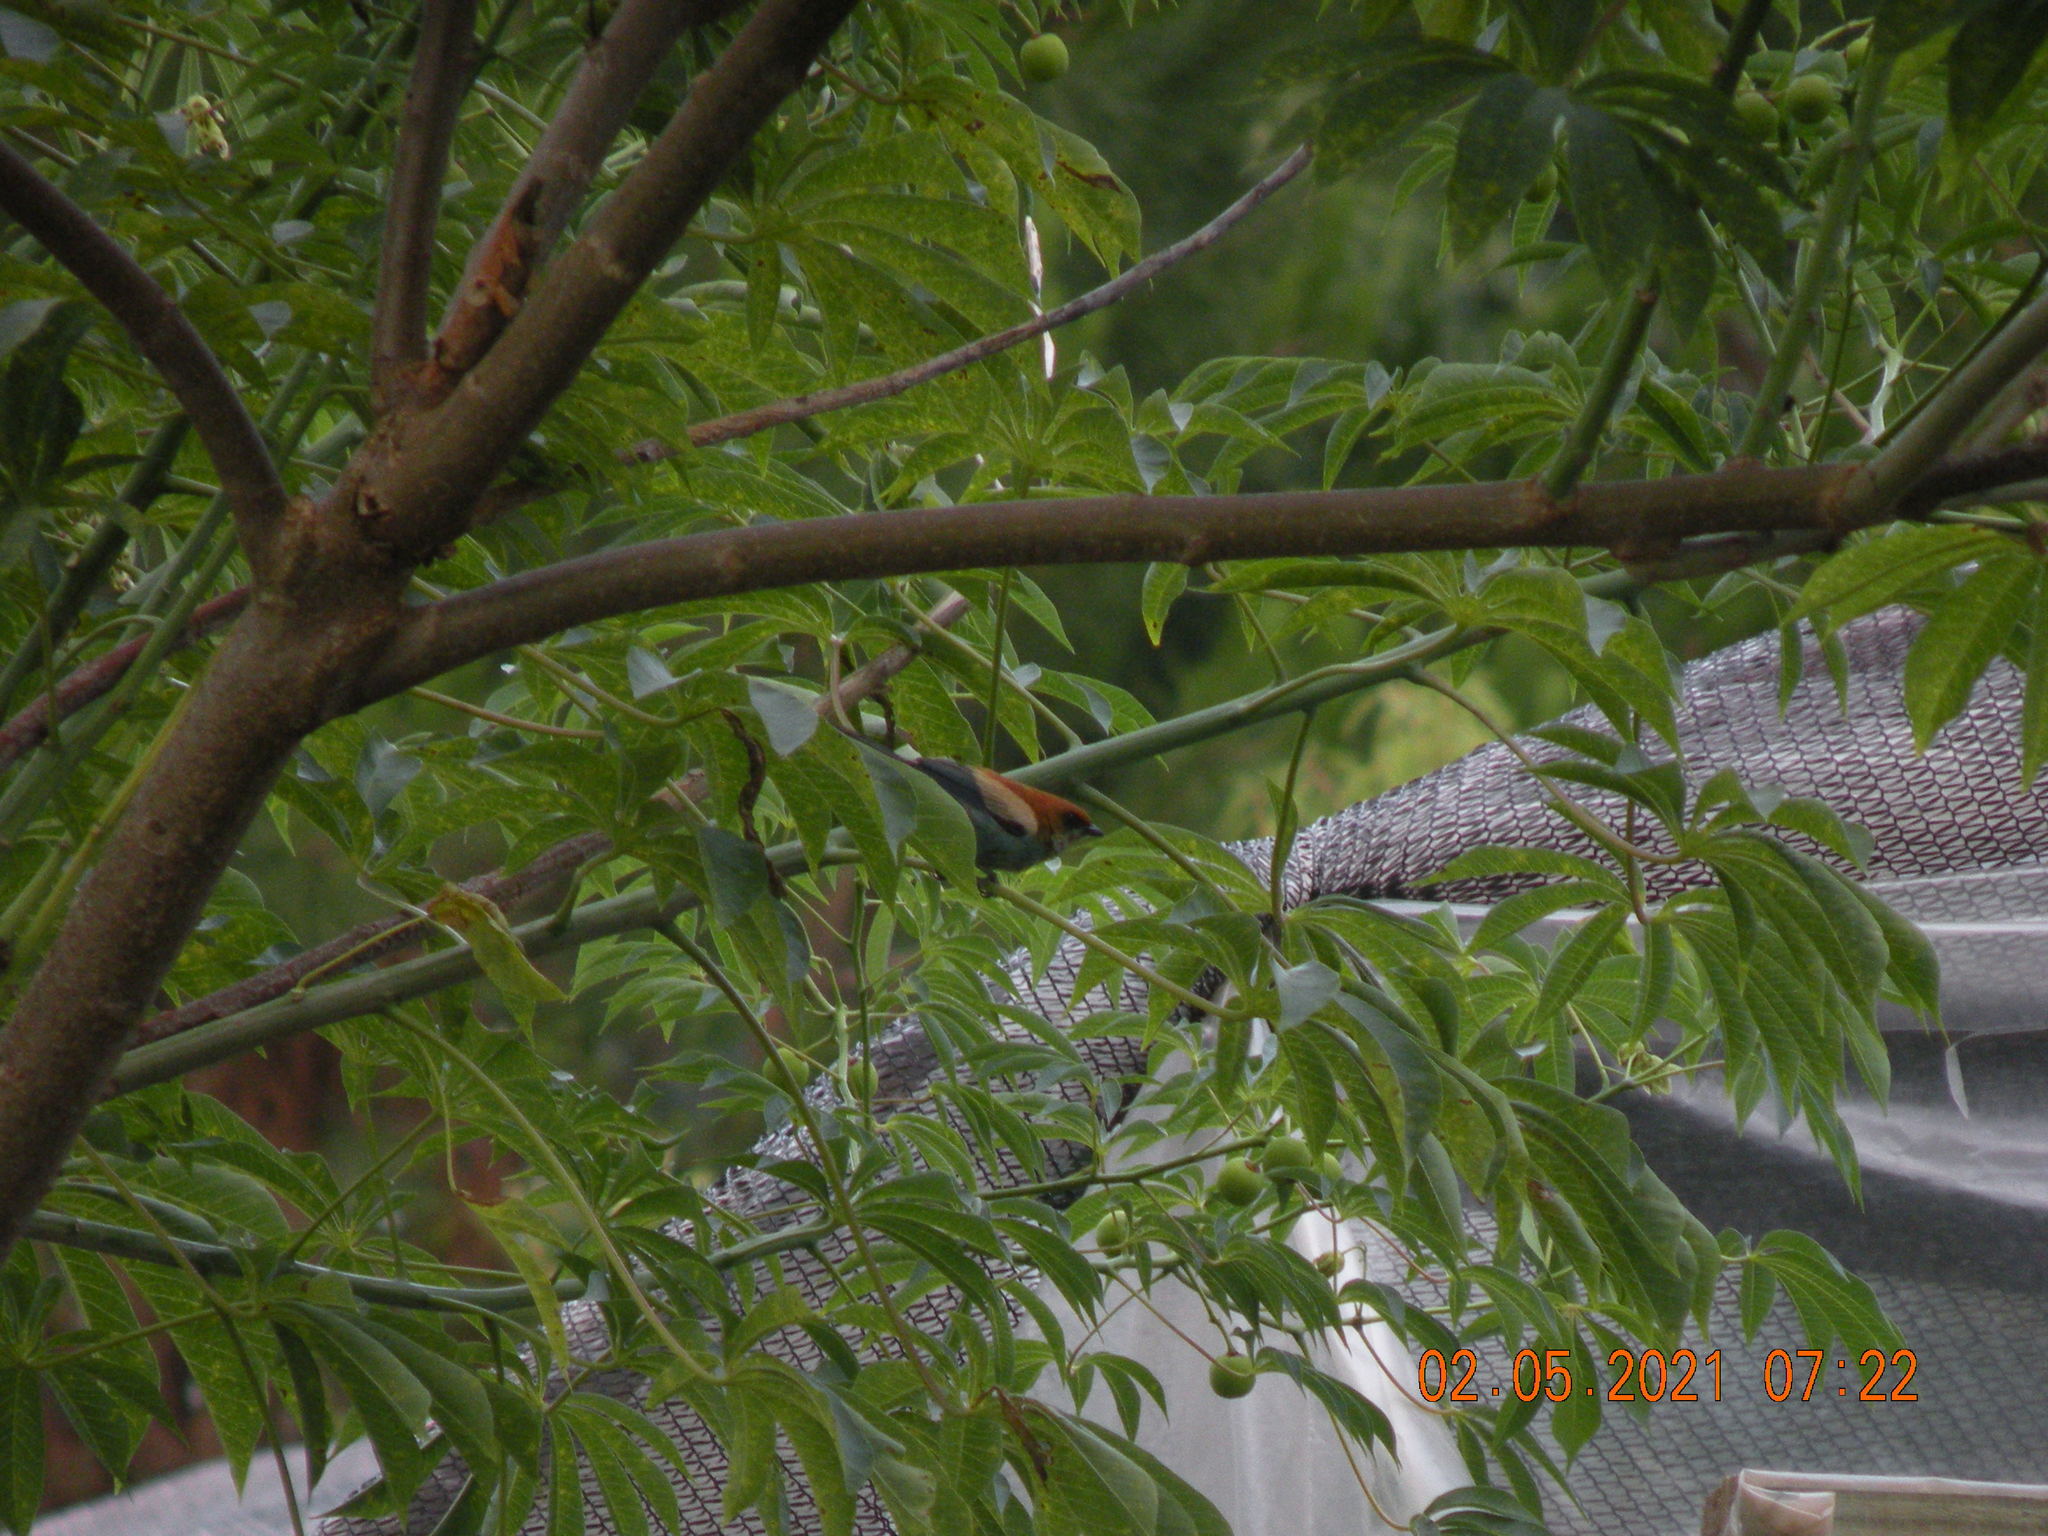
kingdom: Animalia
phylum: Chordata
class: Aves
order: Passeriformes
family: Thraupidae
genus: Stilpnia
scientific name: Stilpnia preciosa
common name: Chestnut-backed tanager
